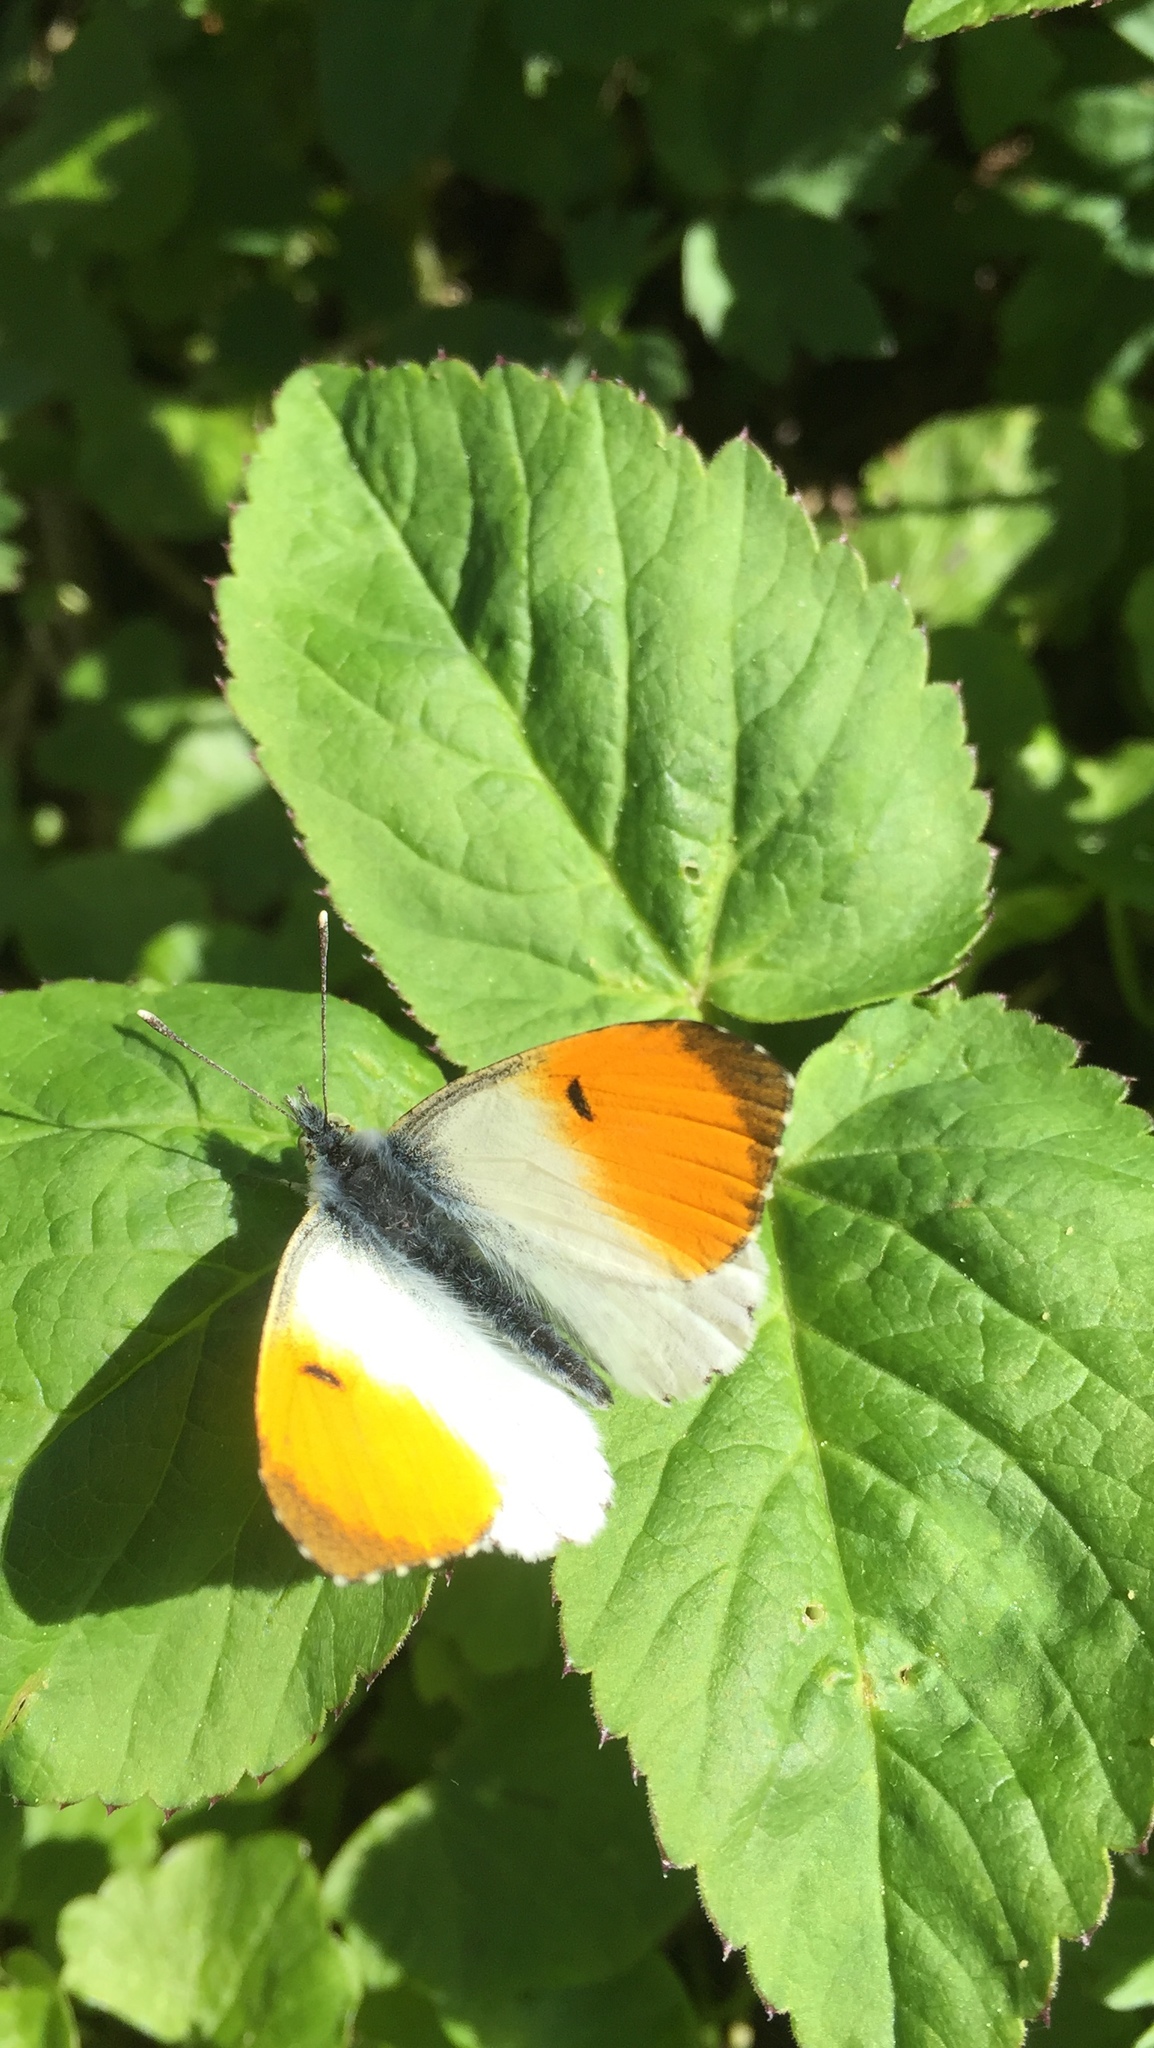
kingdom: Animalia
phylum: Arthropoda
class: Insecta
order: Lepidoptera
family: Pieridae
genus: Anthocharis
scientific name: Anthocharis cardamines
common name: Orange-tip
